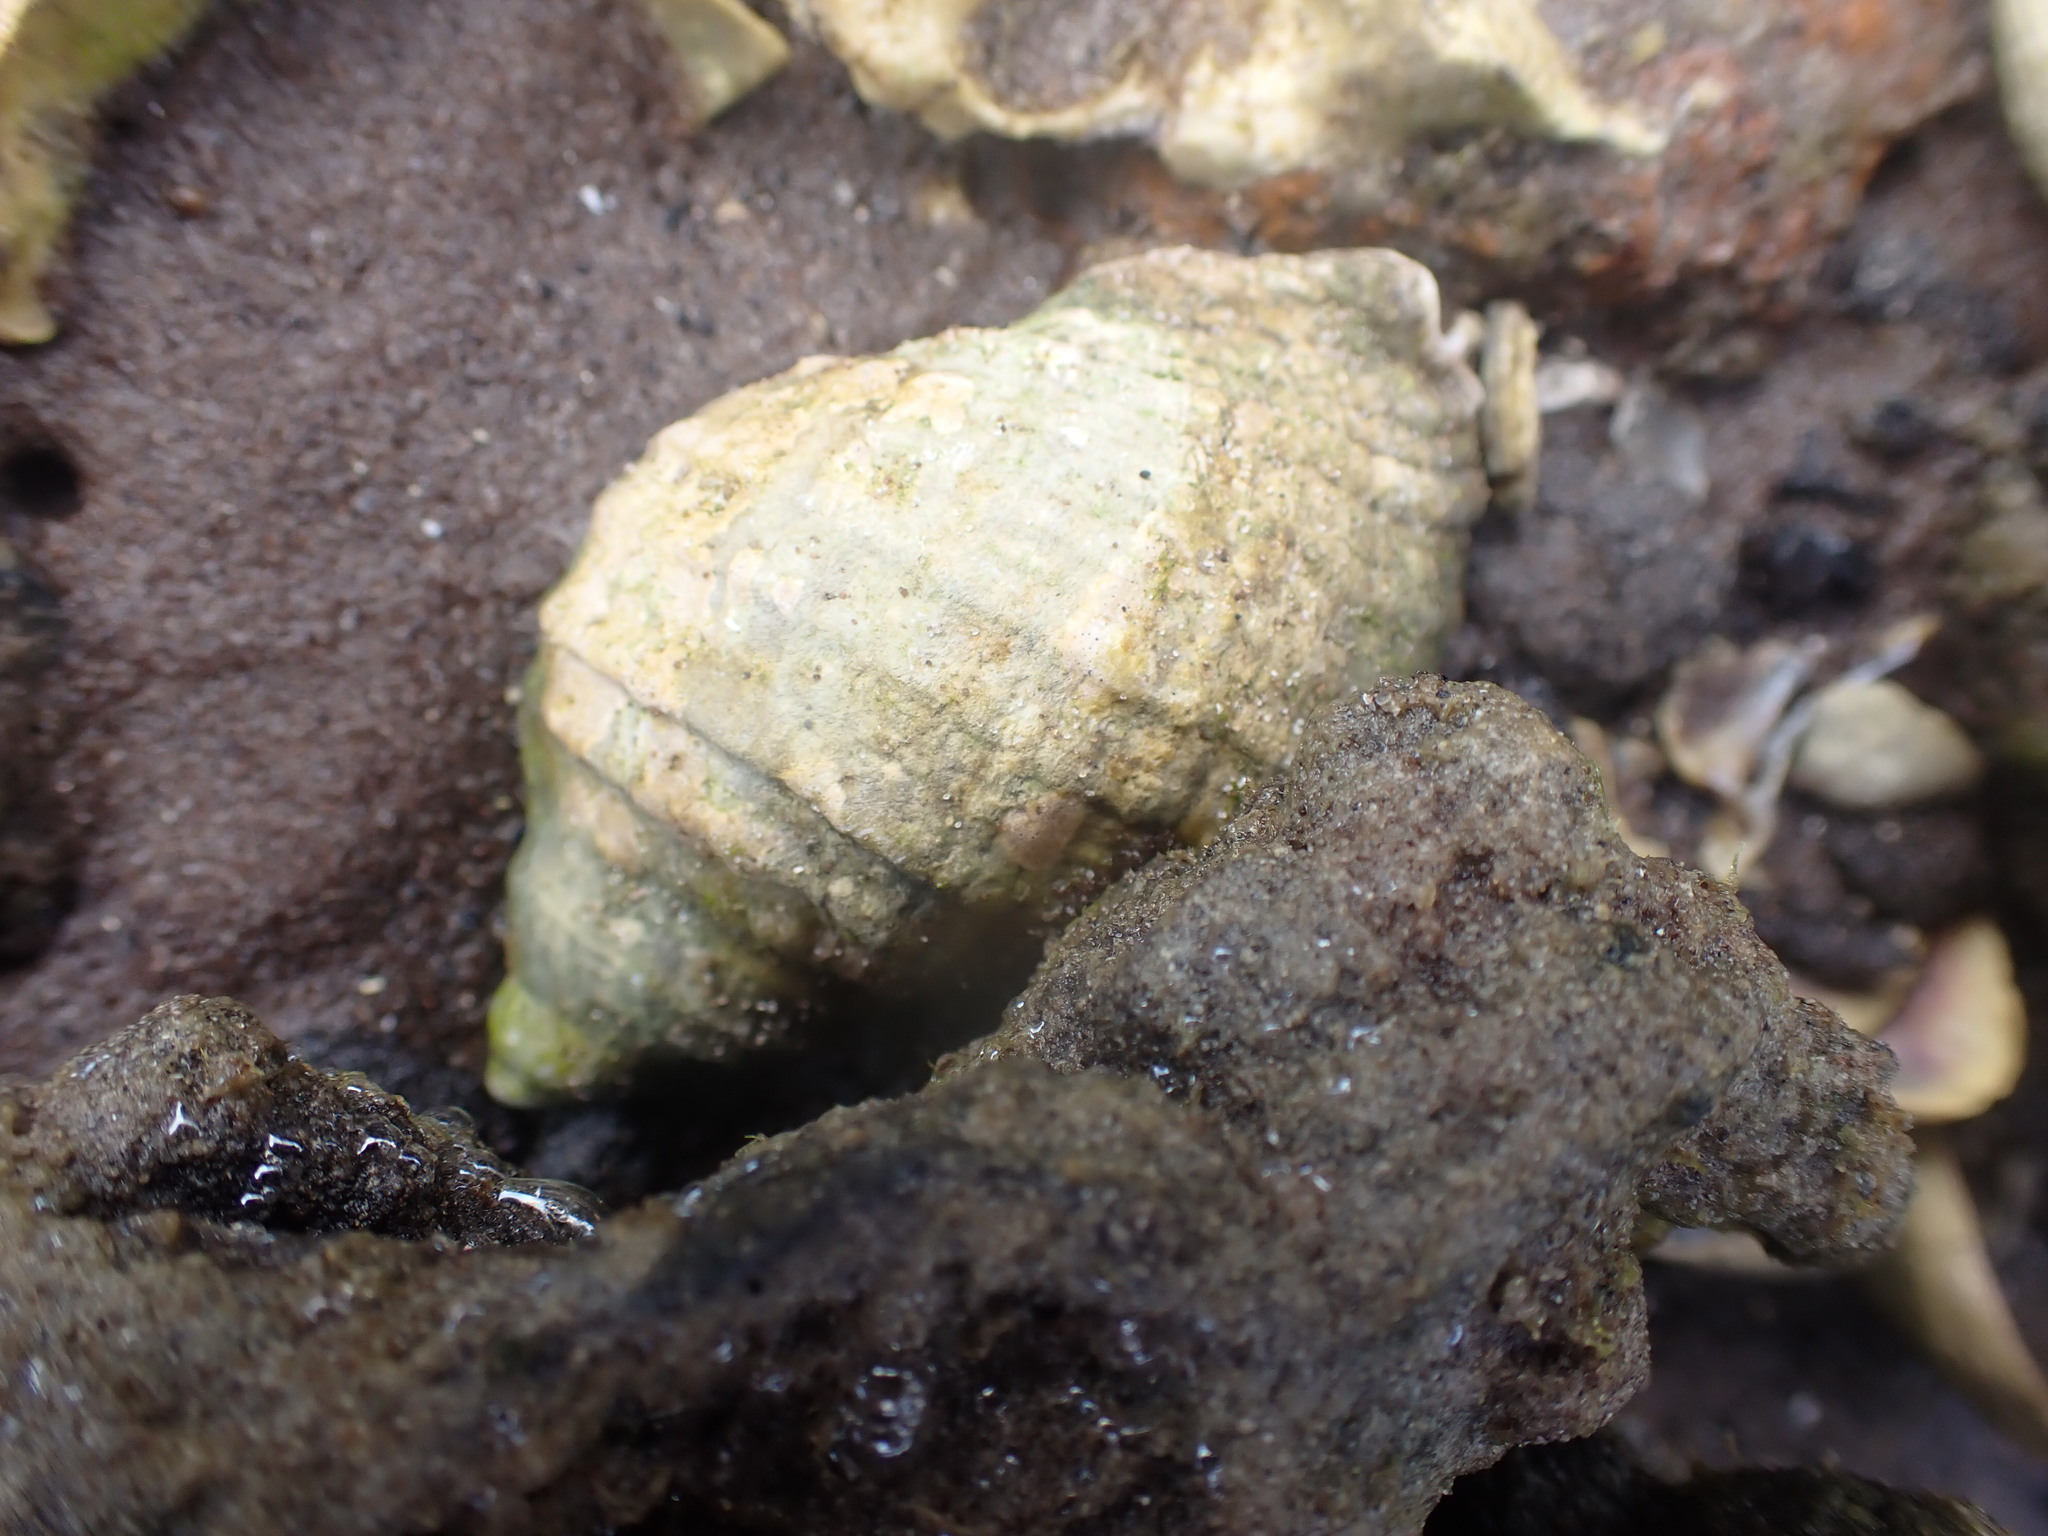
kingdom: Animalia
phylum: Mollusca
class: Gastropoda
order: Neogastropoda
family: Muricidae
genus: Dicathais
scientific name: Dicathais orbita
